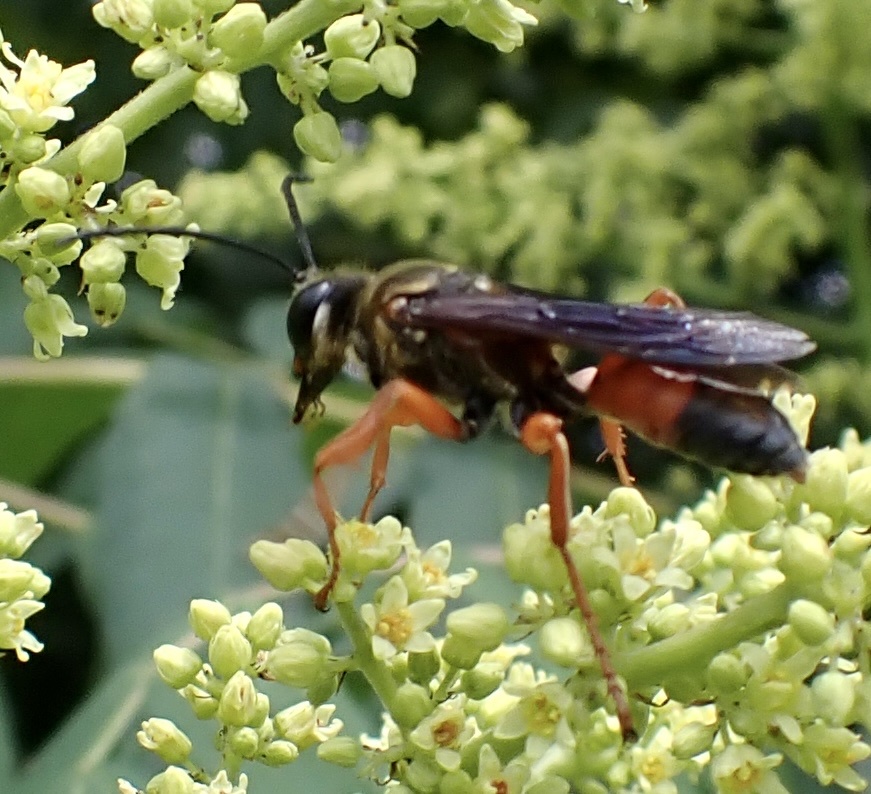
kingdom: Animalia
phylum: Arthropoda
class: Insecta
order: Hymenoptera
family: Sphecidae
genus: Sphex
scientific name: Sphex ichneumoneus
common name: Great golden digger wasp
